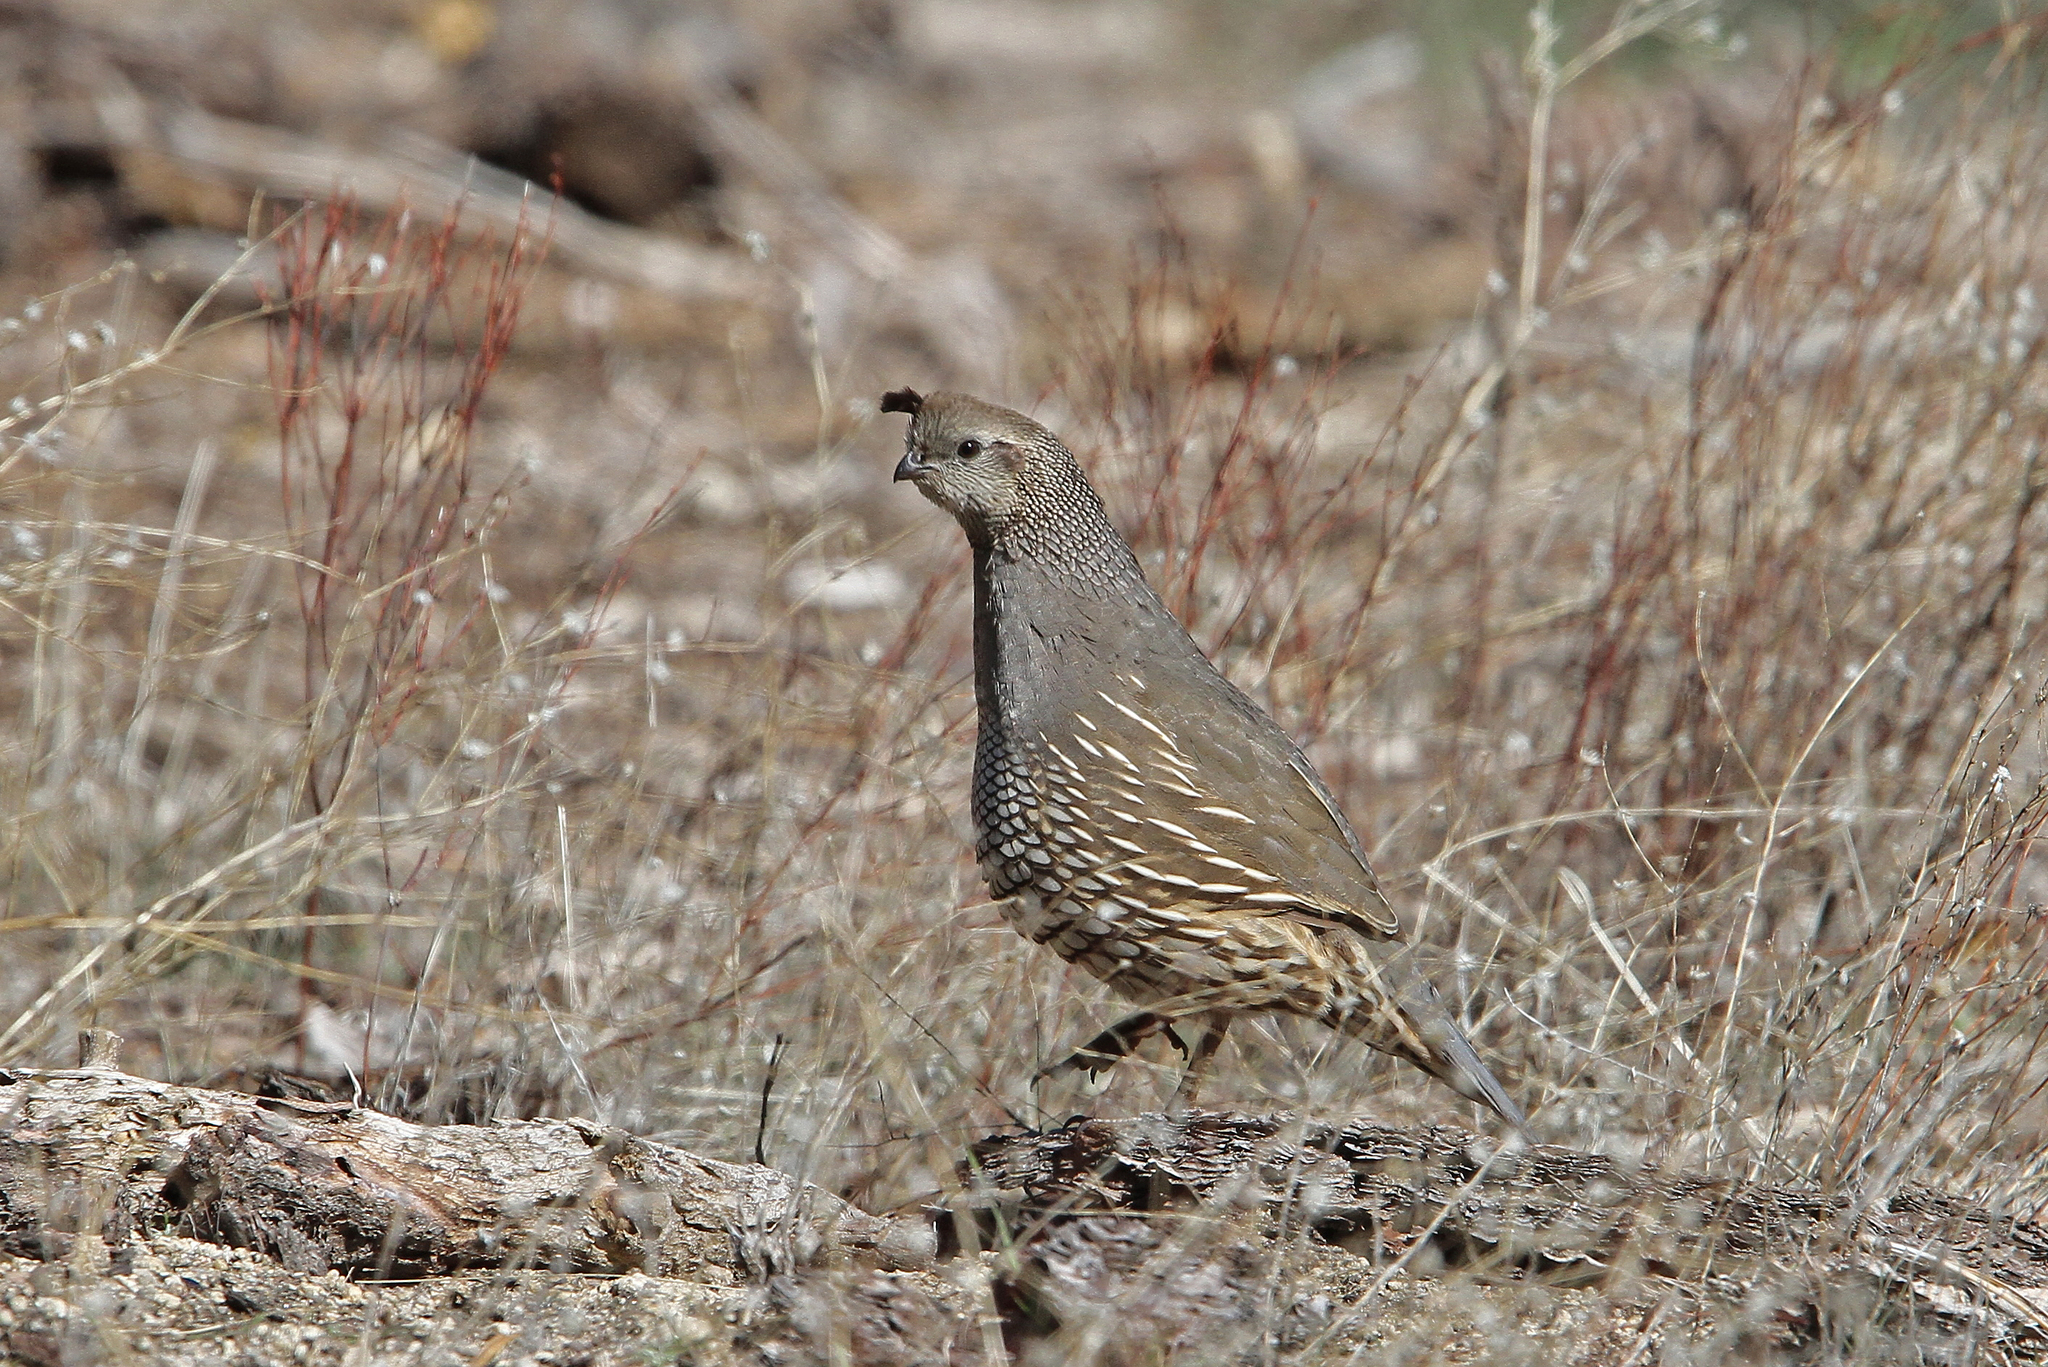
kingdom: Animalia
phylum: Chordata
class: Aves
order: Galliformes
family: Odontophoridae
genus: Callipepla
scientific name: Callipepla californica
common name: California quail
